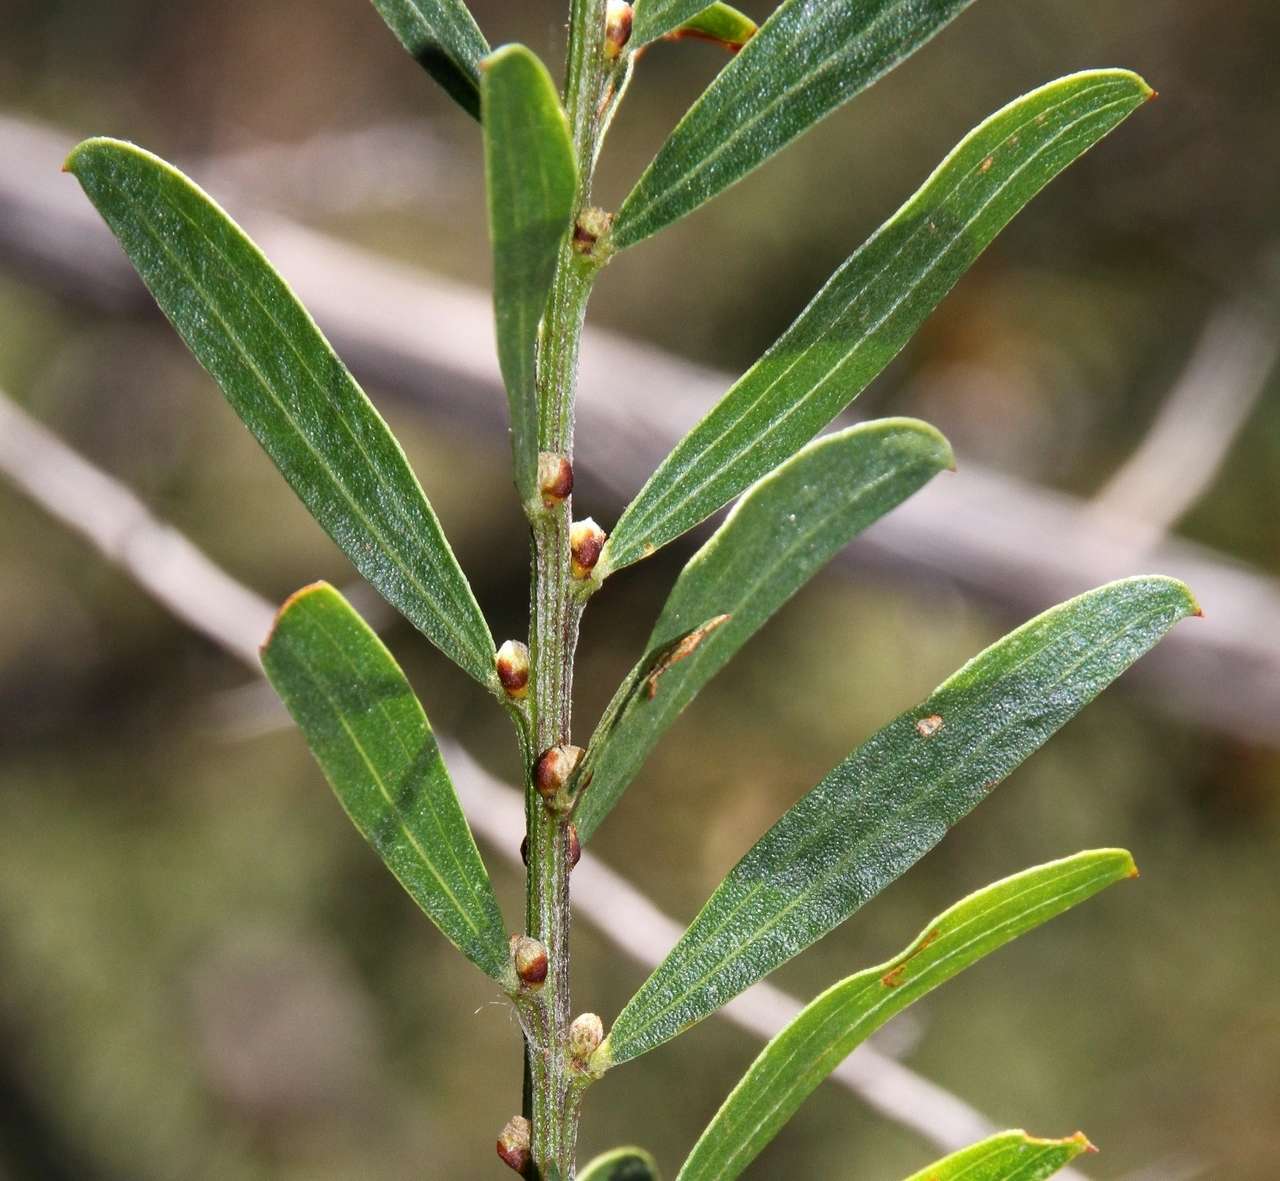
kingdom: Plantae
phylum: Tracheophyta
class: Magnoliopsida
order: Fabales
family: Fabaceae
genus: Acacia
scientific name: Acacia rostriformis
